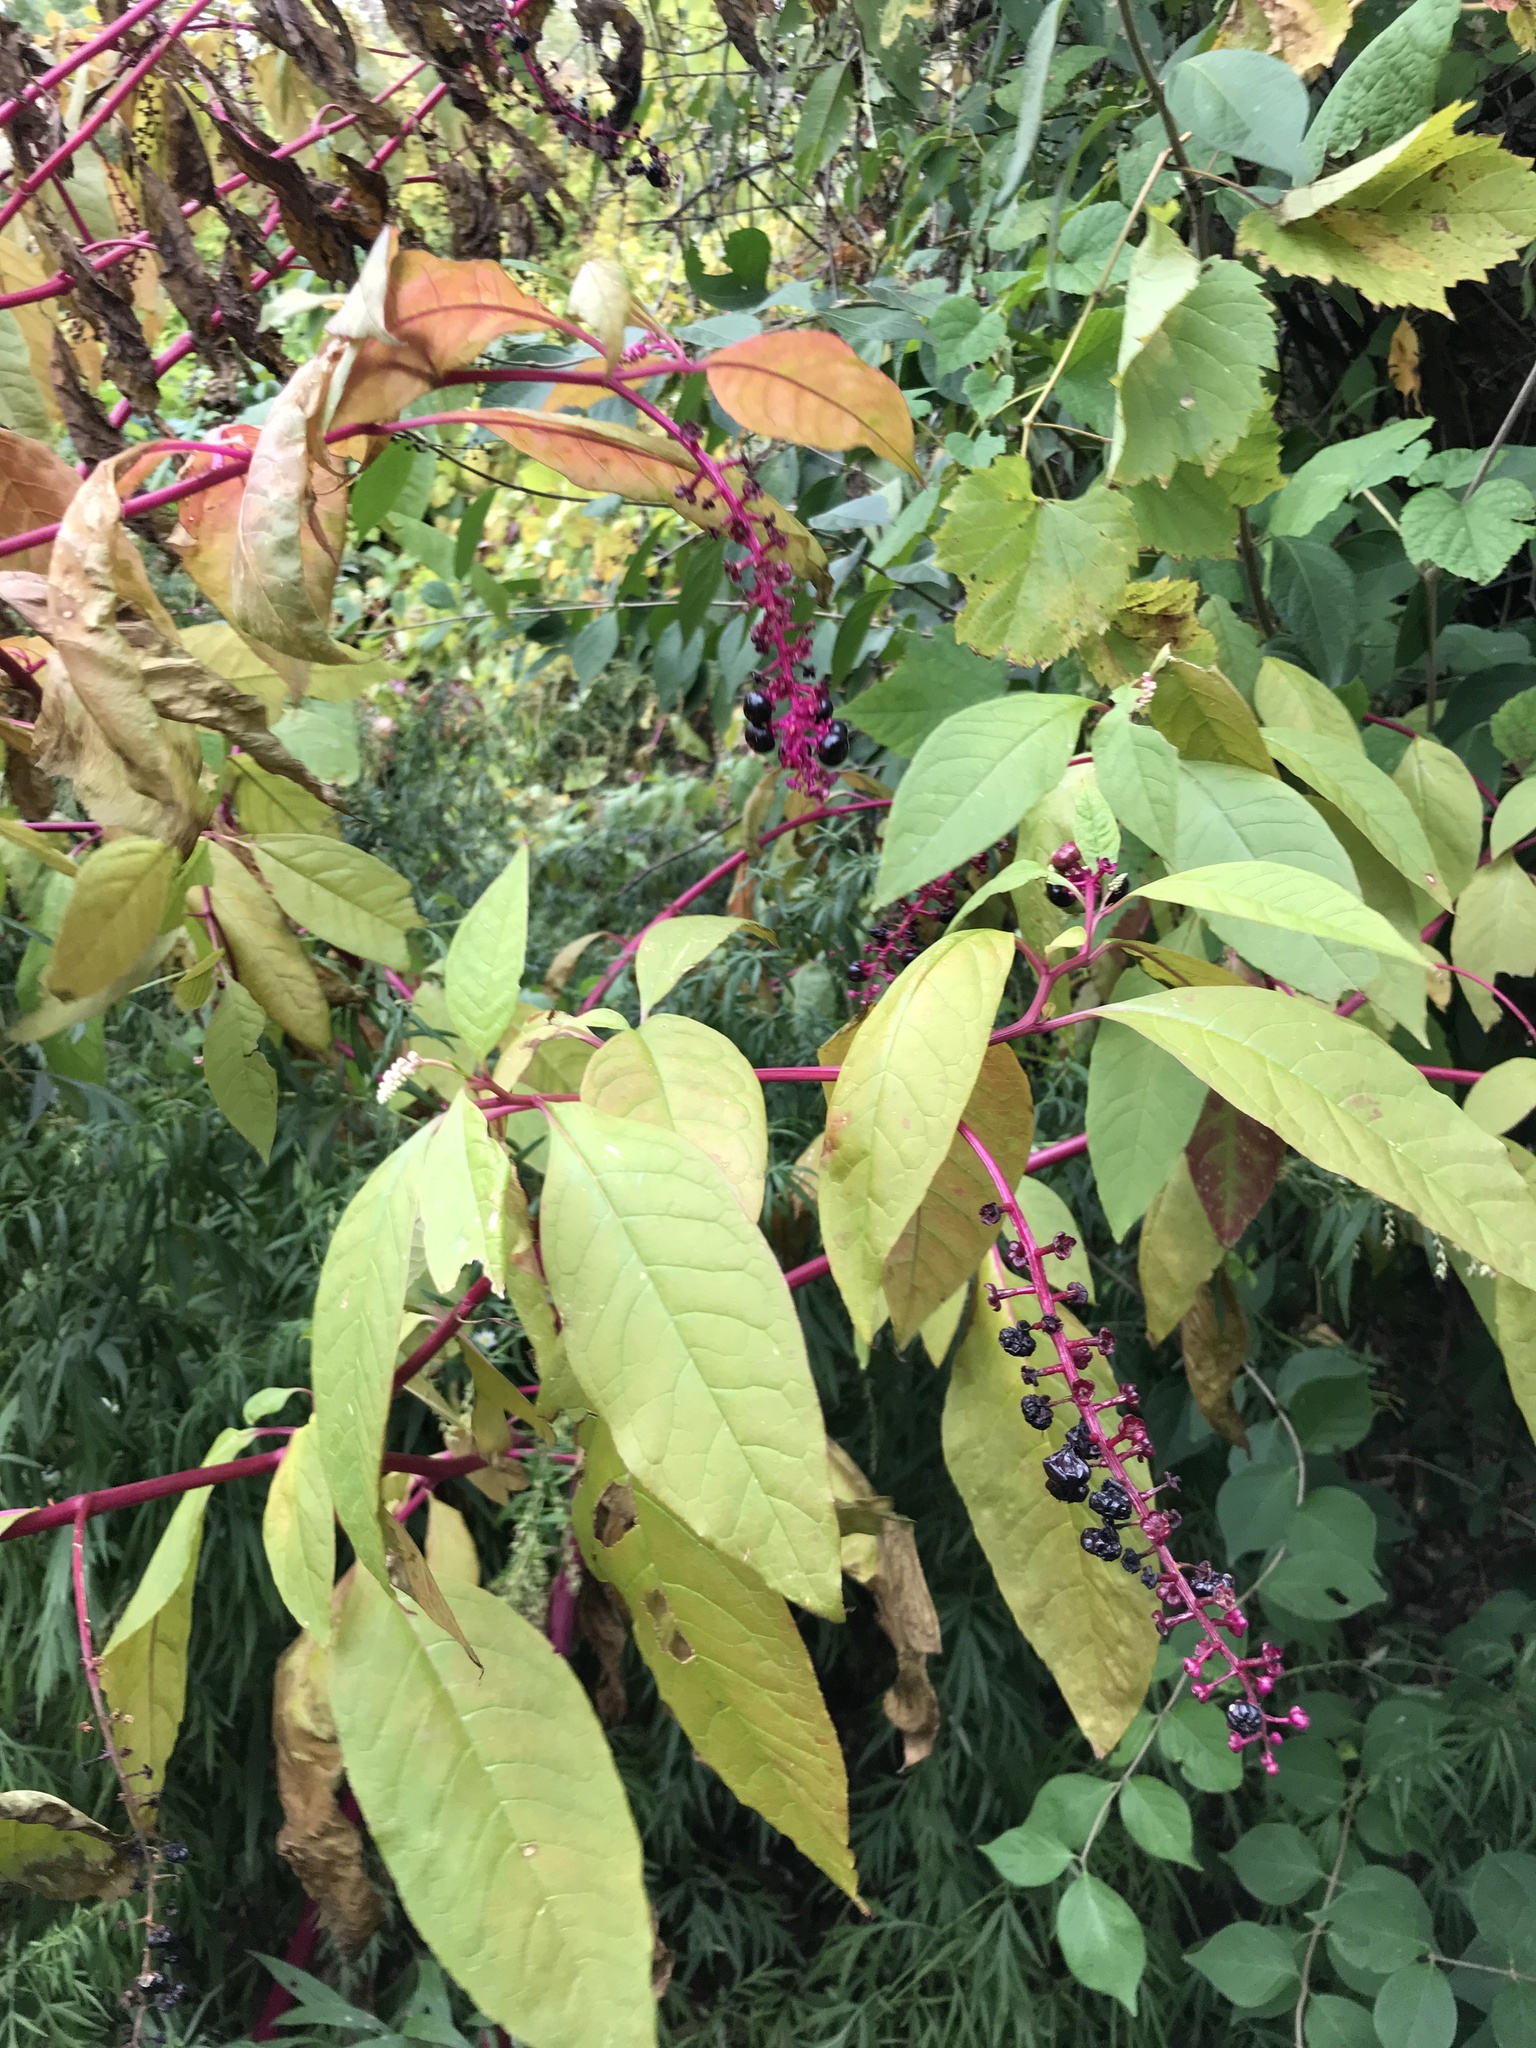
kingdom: Plantae
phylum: Tracheophyta
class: Magnoliopsida
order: Caryophyllales
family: Phytolaccaceae
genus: Phytolacca
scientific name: Phytolacca americana
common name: American pokeweed
